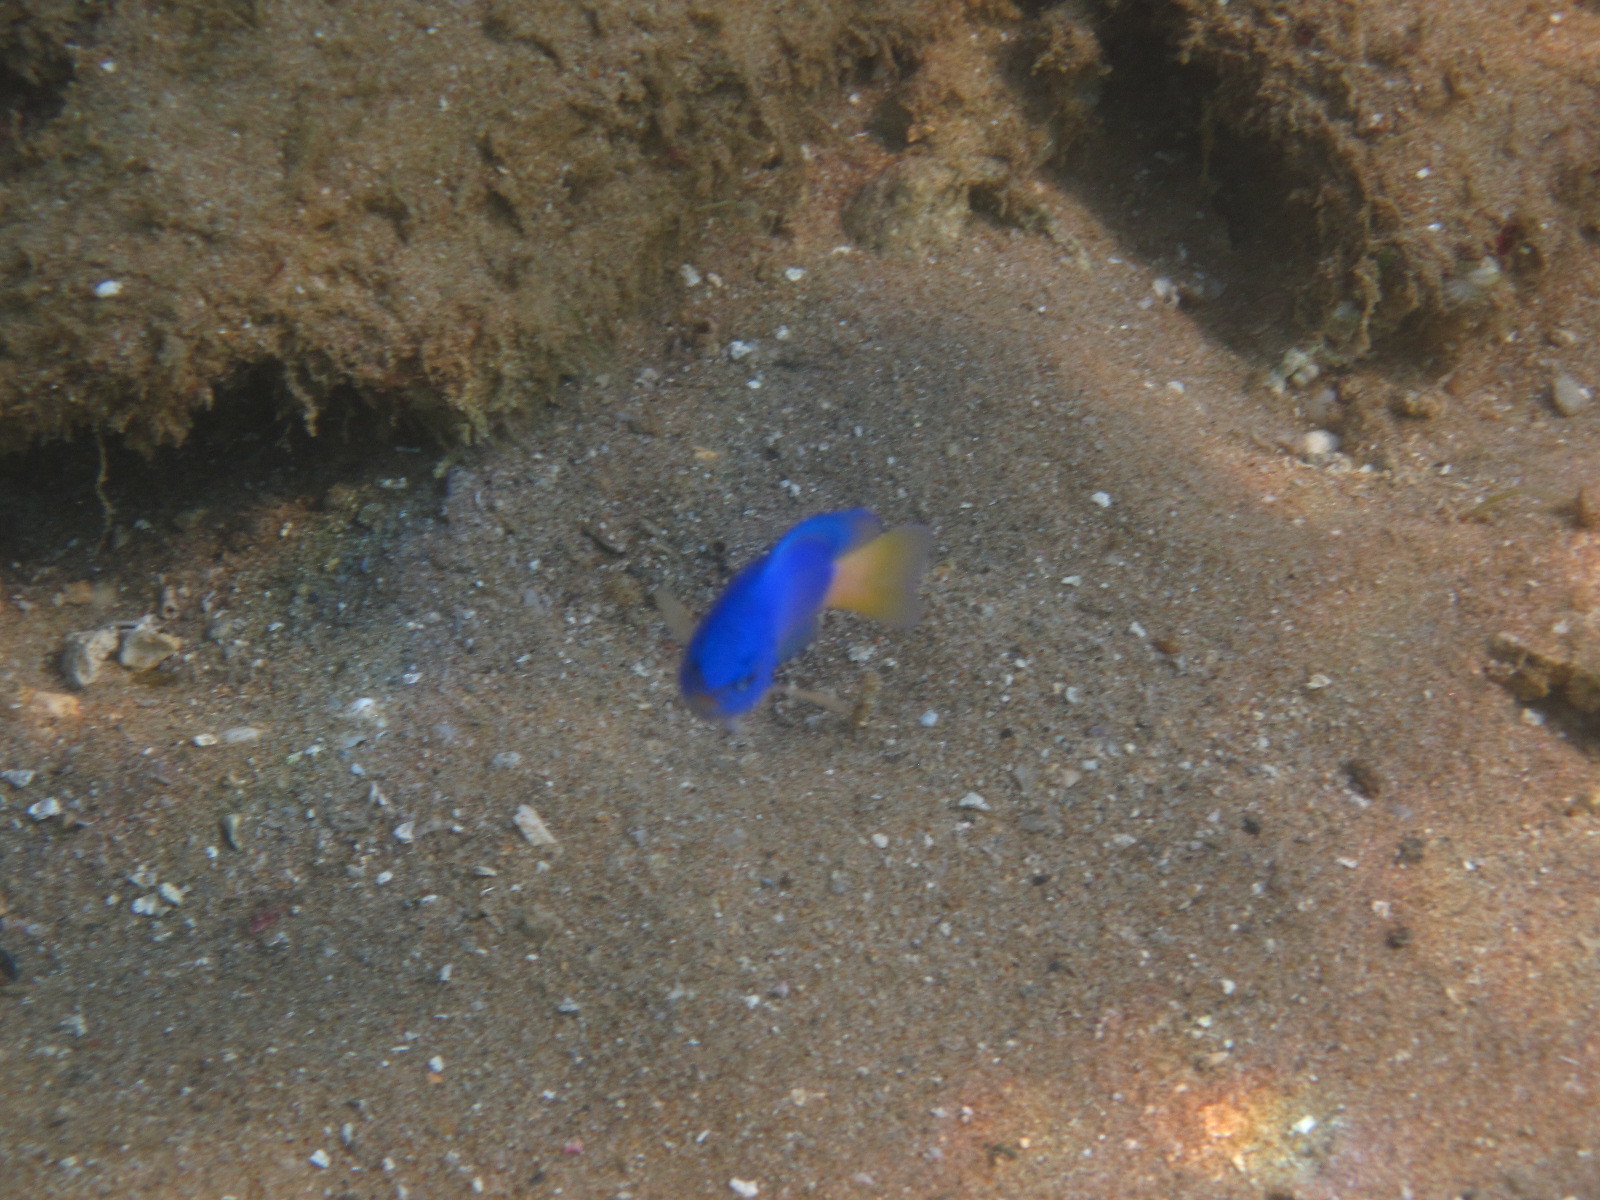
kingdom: Animalia
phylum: Chordata
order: Perciformes
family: Pomacentridae
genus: Pomacentrus
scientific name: Pomacentrus similis
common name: Similar damsel
